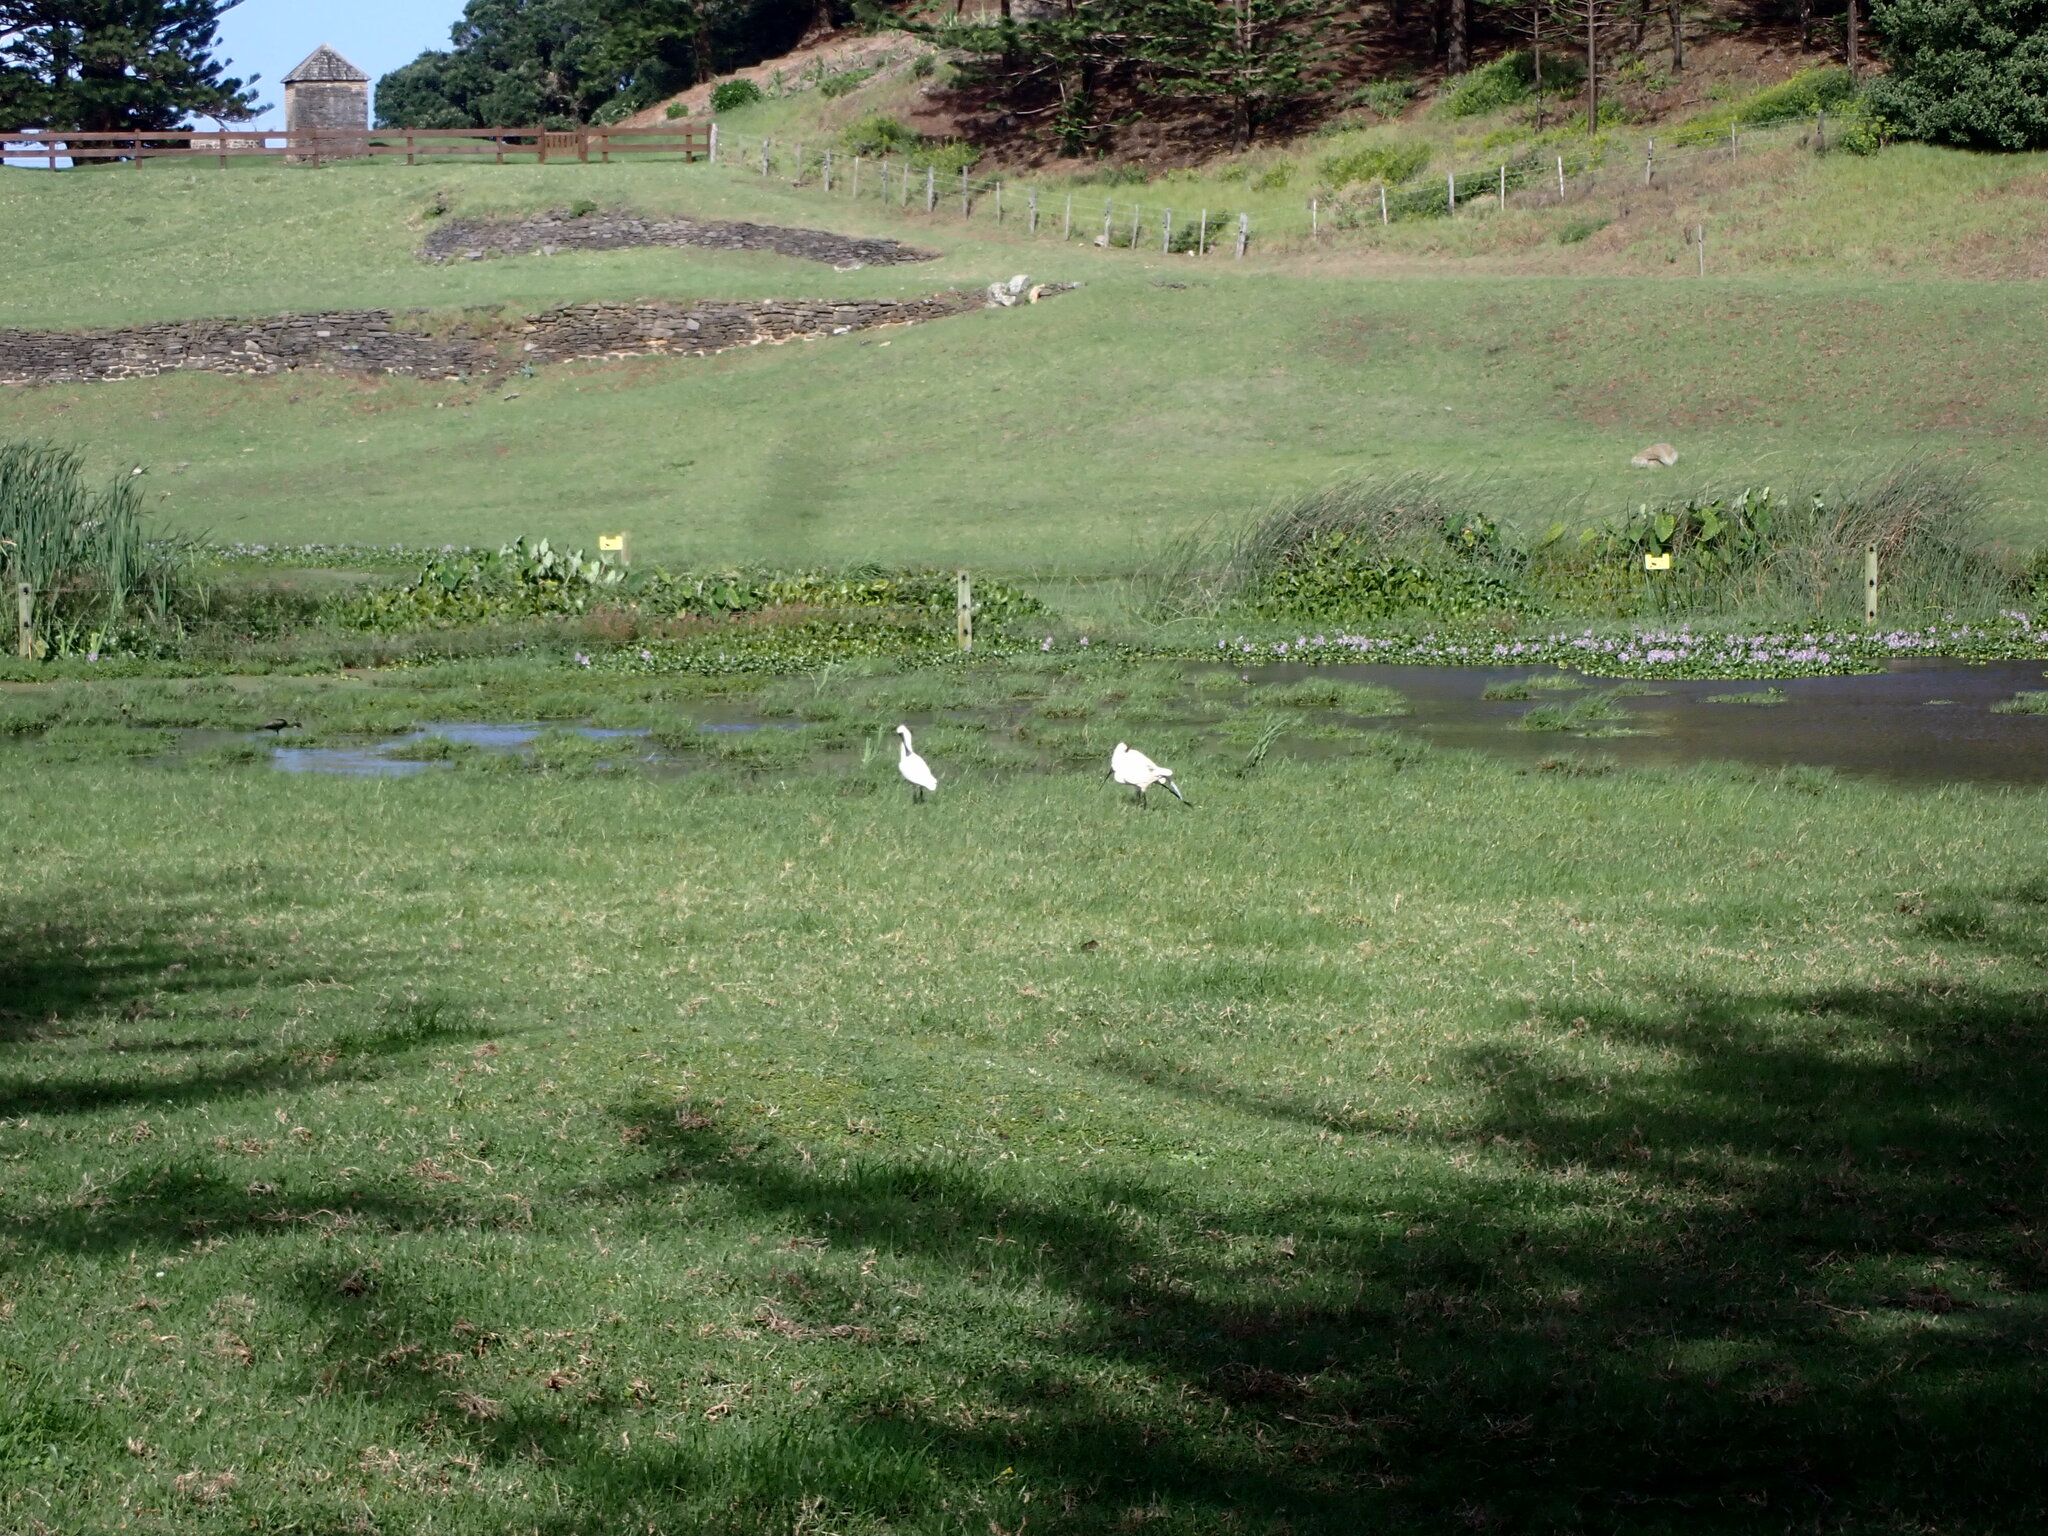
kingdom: Animalia
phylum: Chordata
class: Aves
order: Pelecaniformes
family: Threskiornithidae
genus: Platalea
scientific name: Platalea regia
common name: Royal spoonbill
